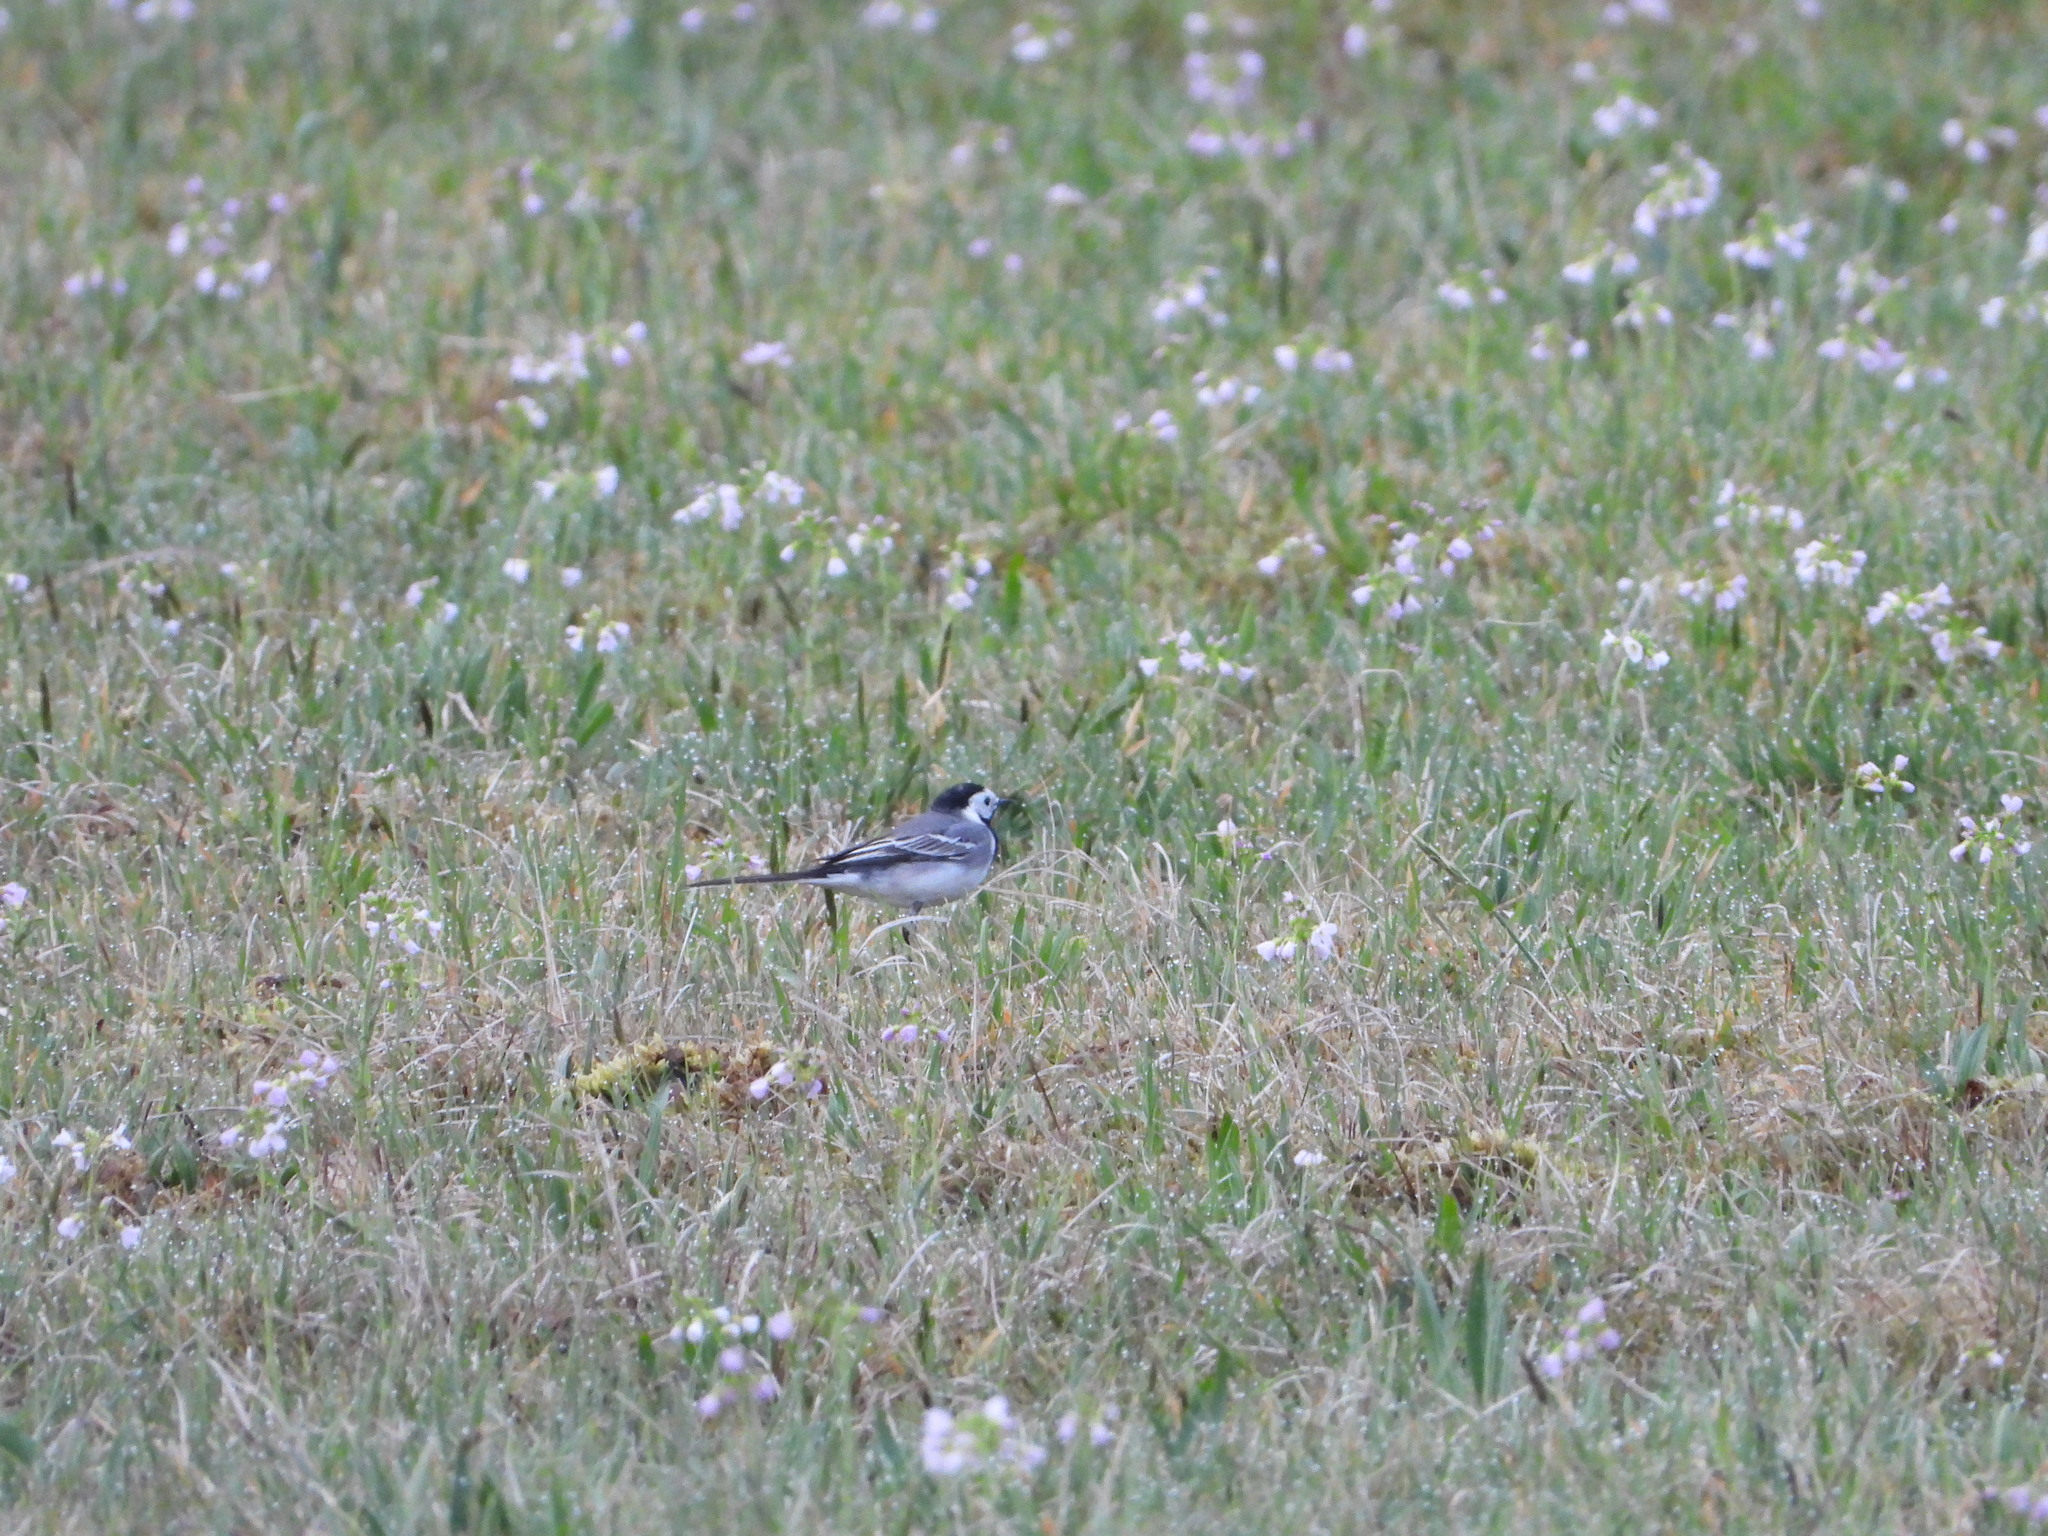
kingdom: Animalia
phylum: Chordata
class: Aves
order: Passeriformes
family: Motacillidae
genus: Motacilla
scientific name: Motacilla alba
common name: White wagtail
